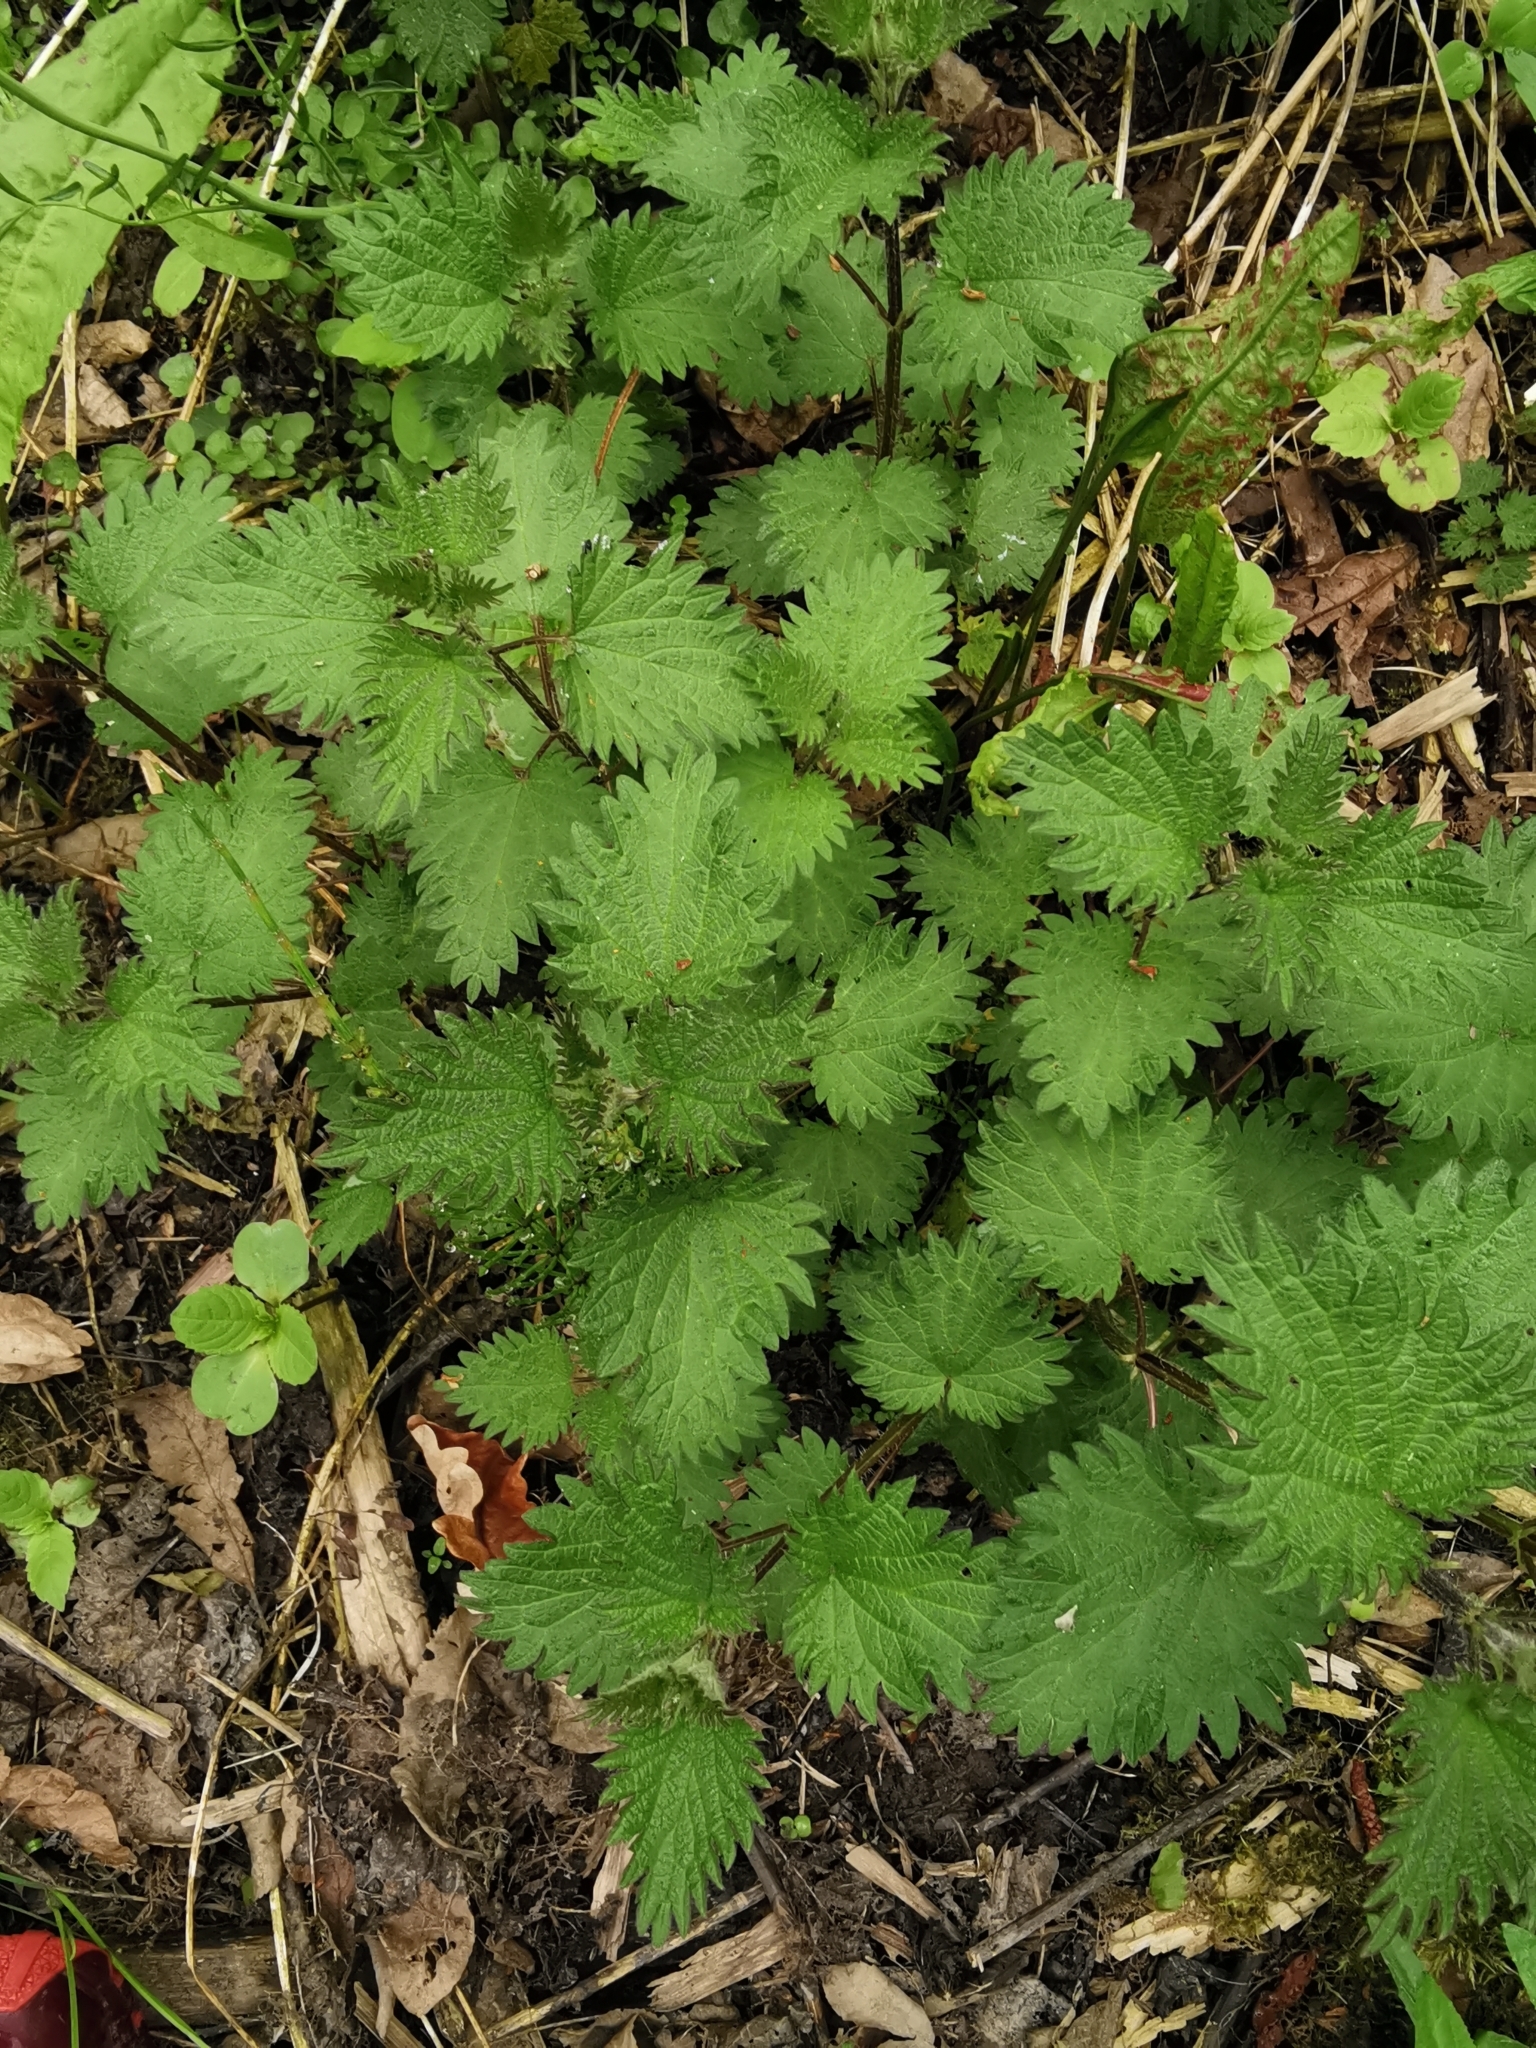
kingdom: Plantae
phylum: Tracheophyta
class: Magnoliopsida
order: Rosales
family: Urticaceae
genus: Urtica
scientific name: Urtica dioica
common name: Common nettle
